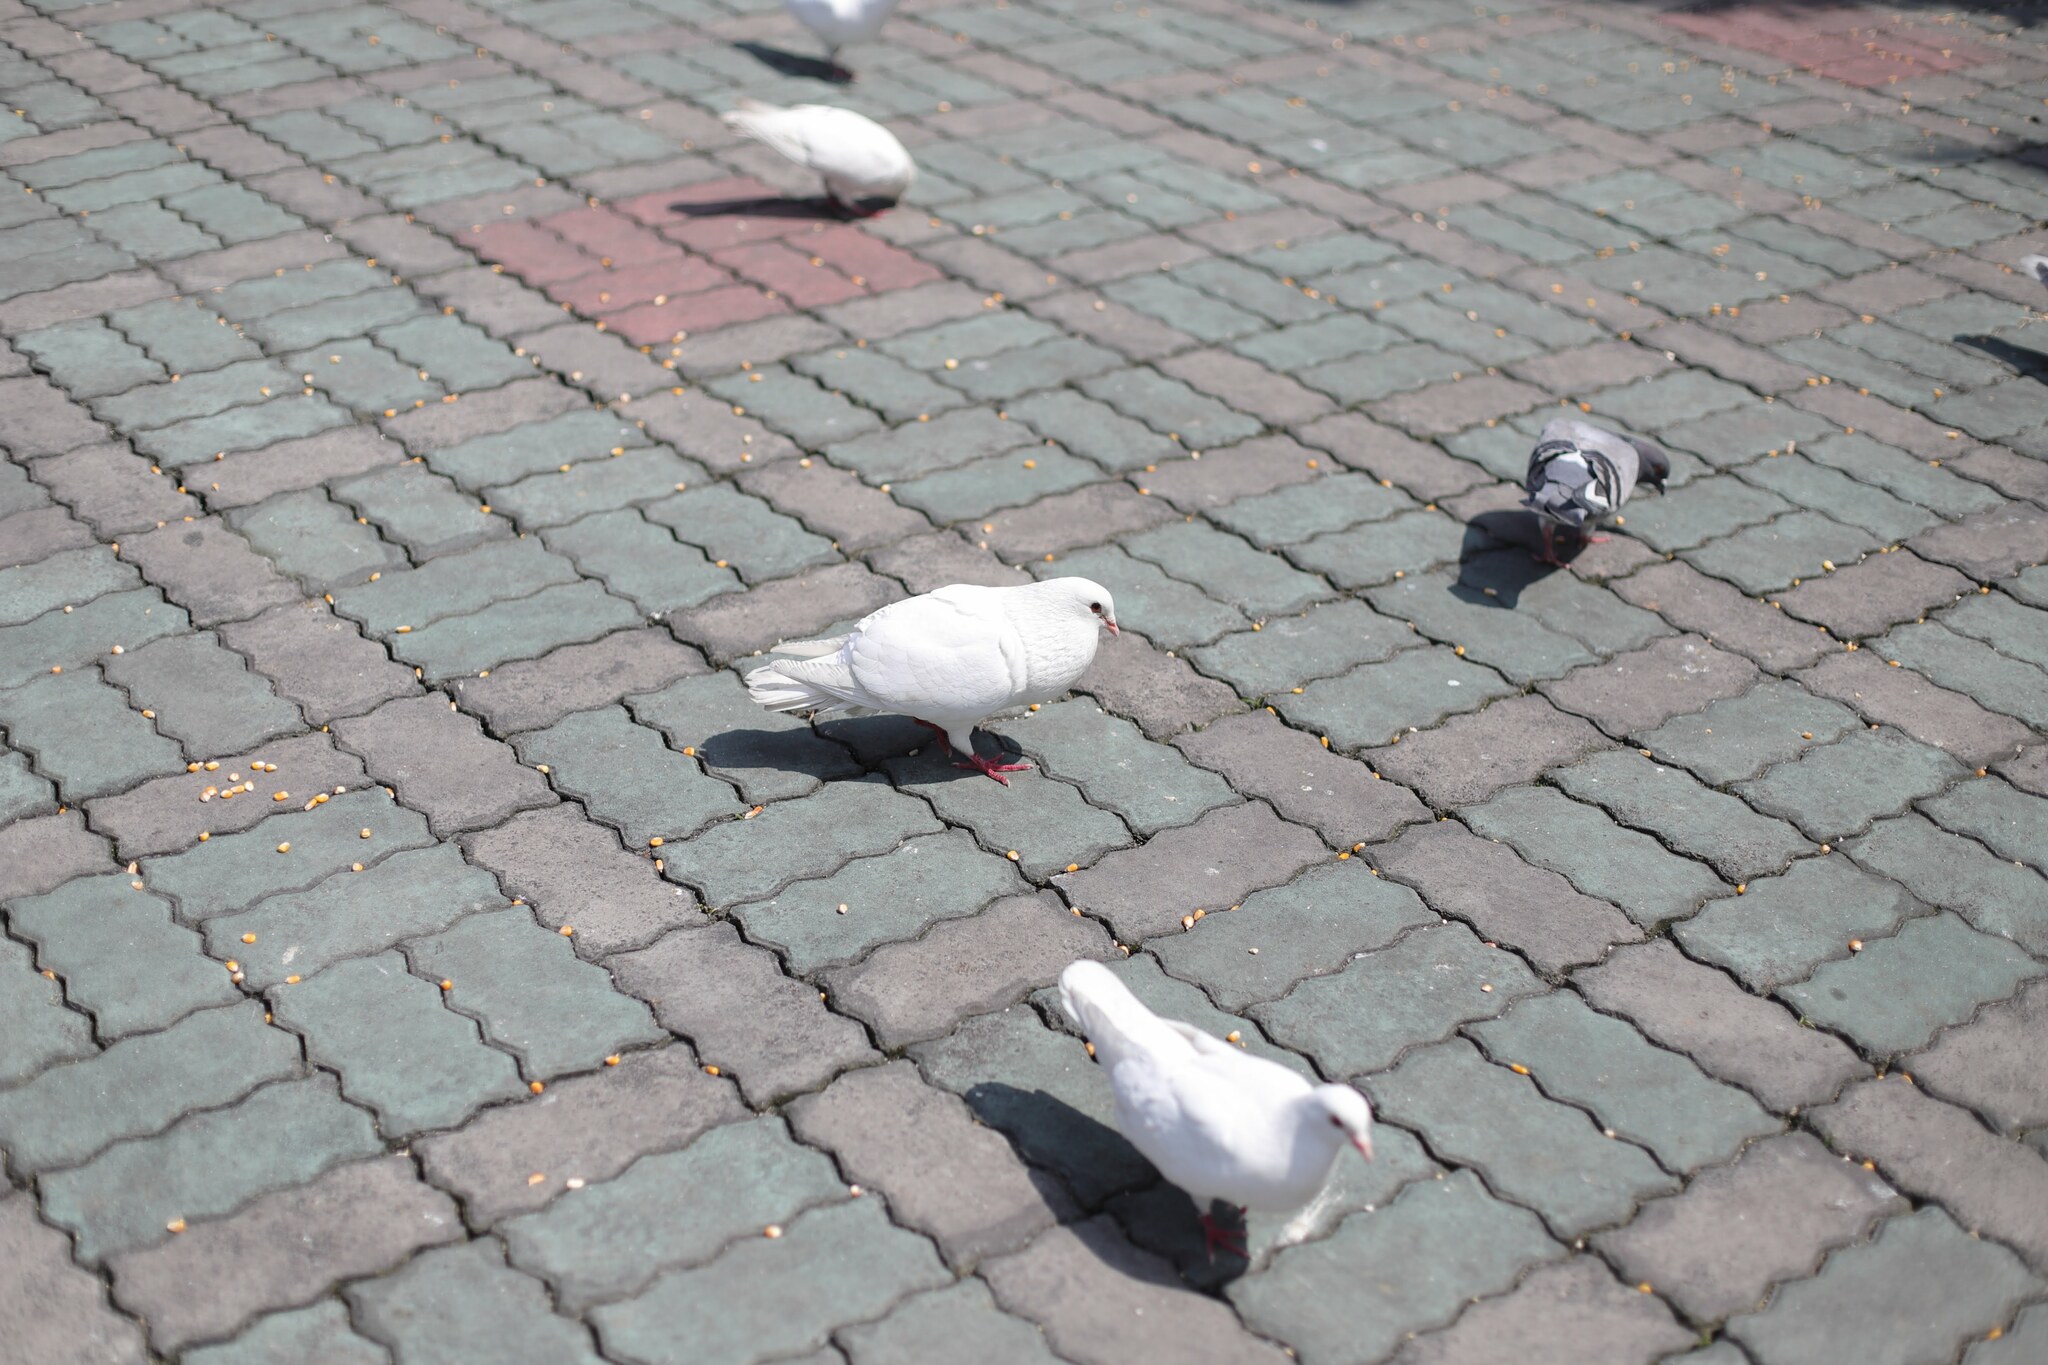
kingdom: Animalia
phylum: Chordata
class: Aves
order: Columbiformes
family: Columbidae
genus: Columba
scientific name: Columba livia
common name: Rock pigeon
